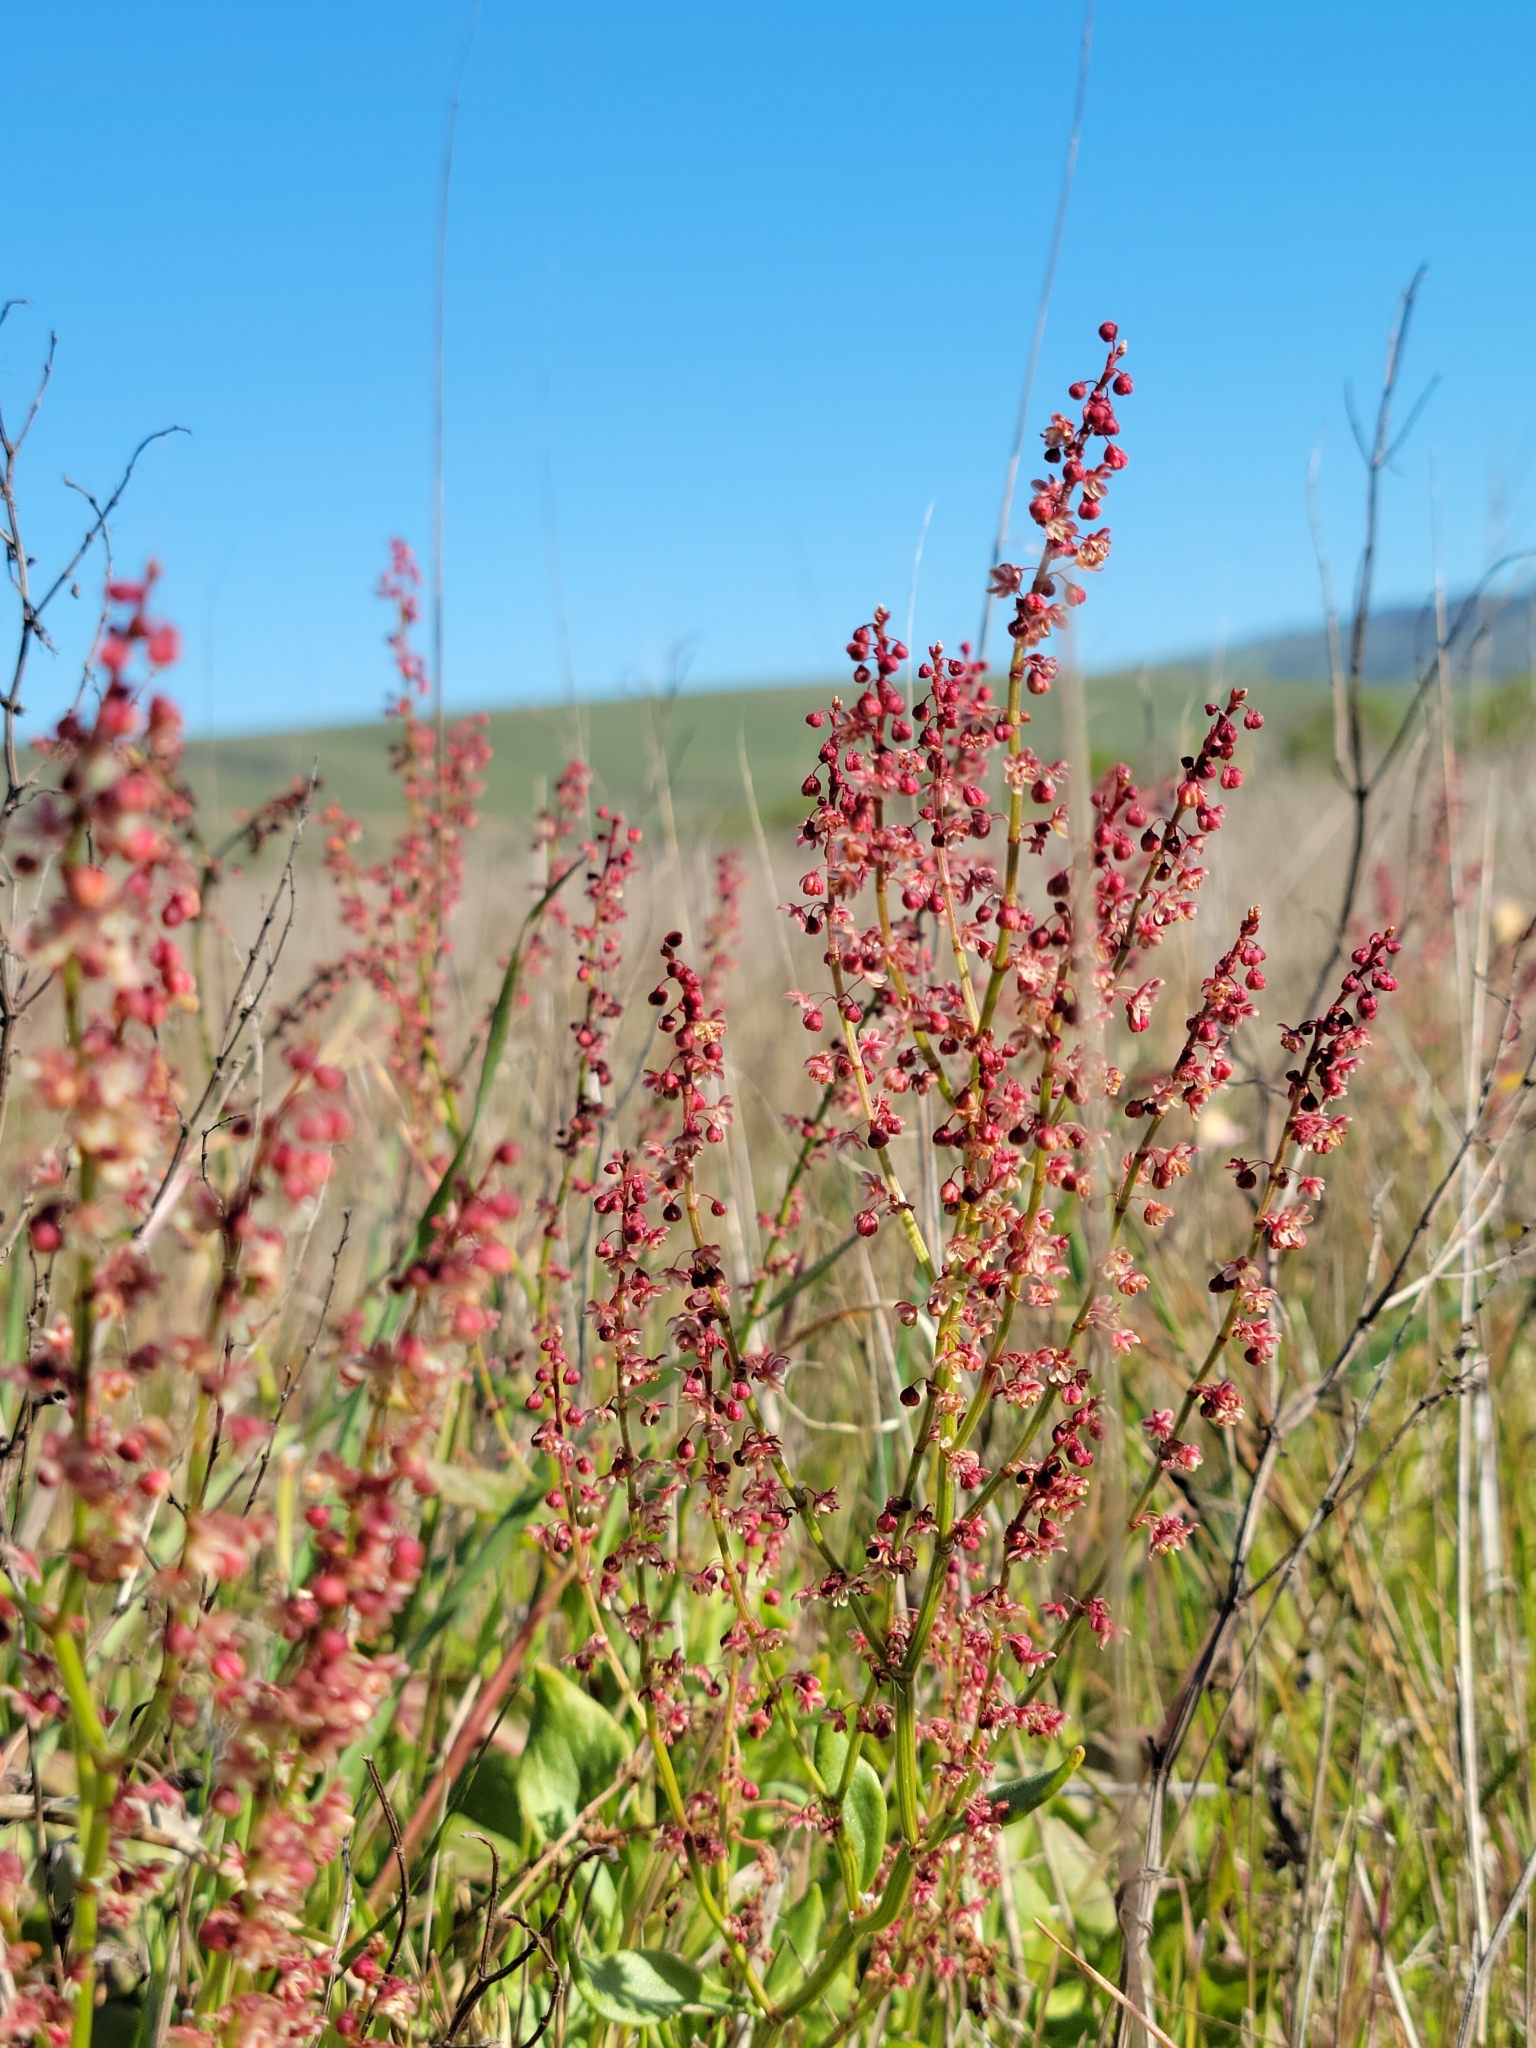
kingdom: Plantae
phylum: Tracheophyta
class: Magnoliopsida
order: Caryophyllales
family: Polygonaceae
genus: Rumex
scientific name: Rumex acetosella
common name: Common sheep sorrel
